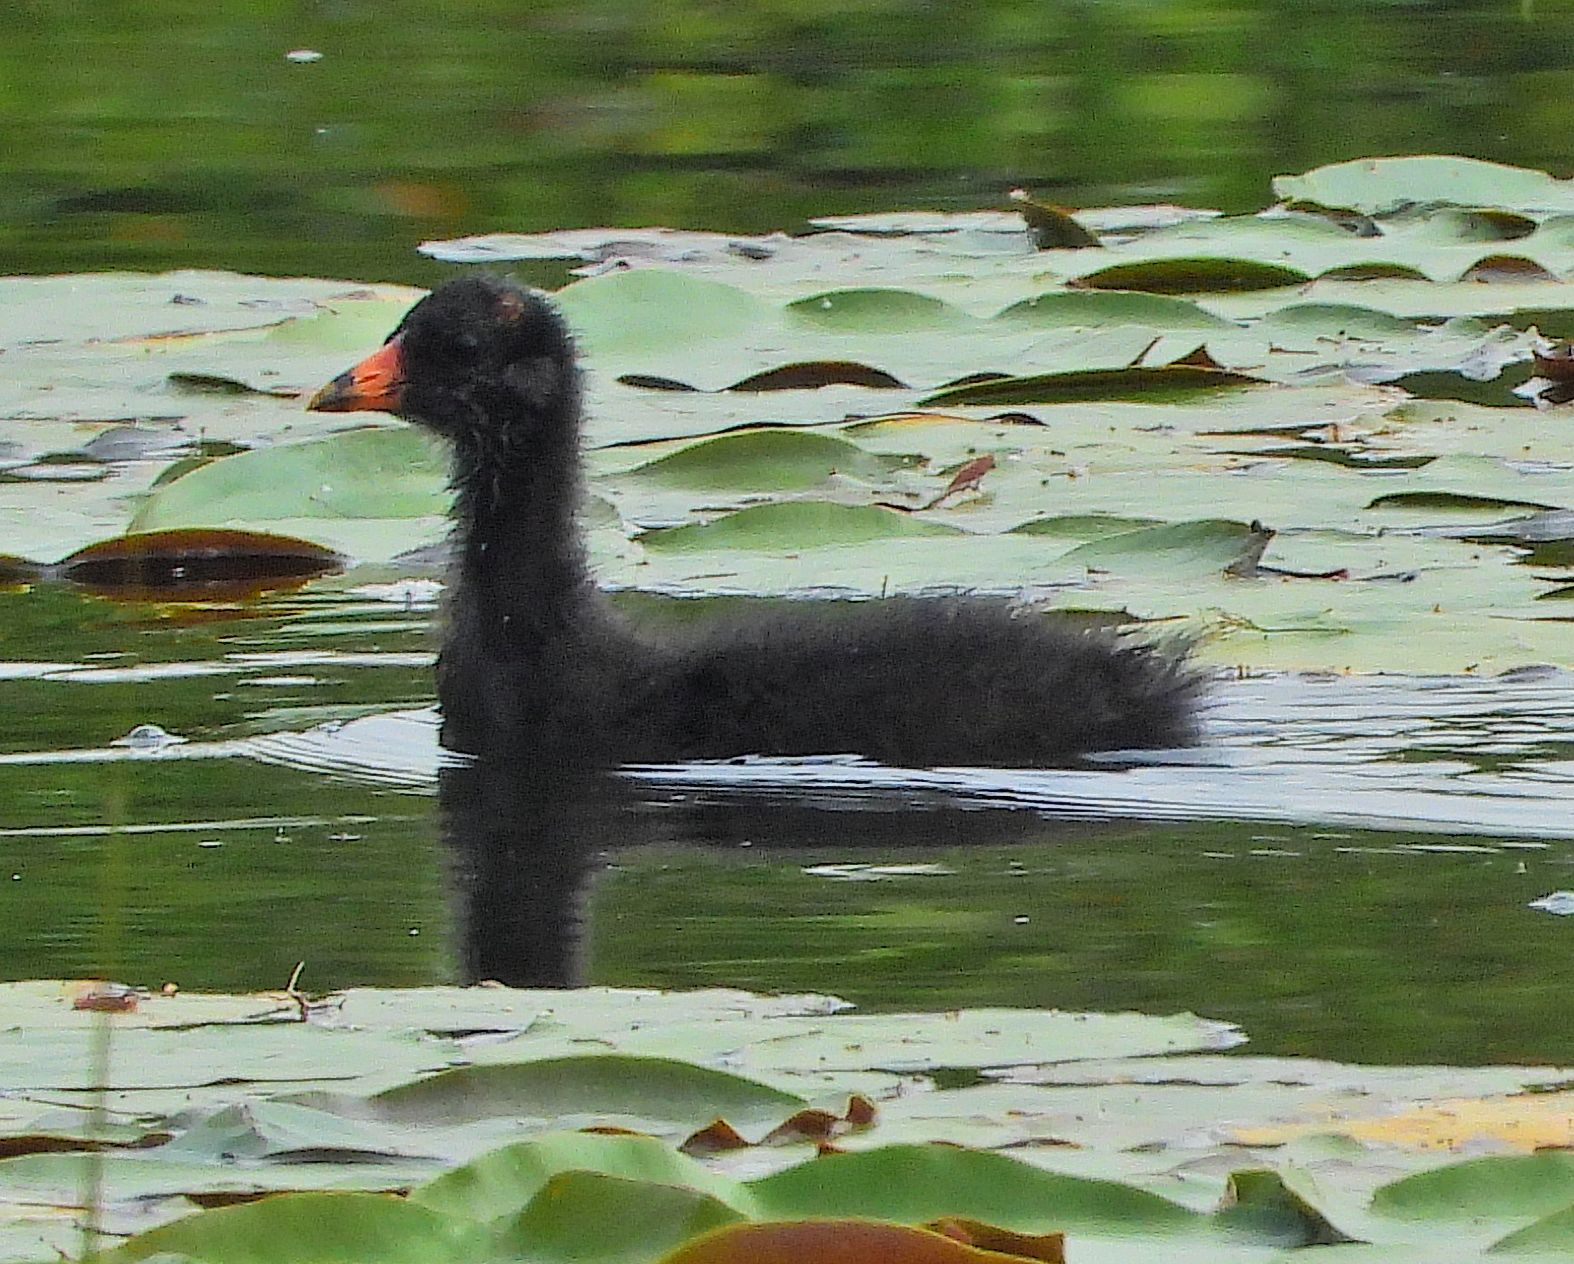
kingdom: Animalia
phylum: Chordata
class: Aves
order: Gruiformes
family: Rallidae
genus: Gallinula
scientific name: Gallinula chloropus
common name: Common moorhen
